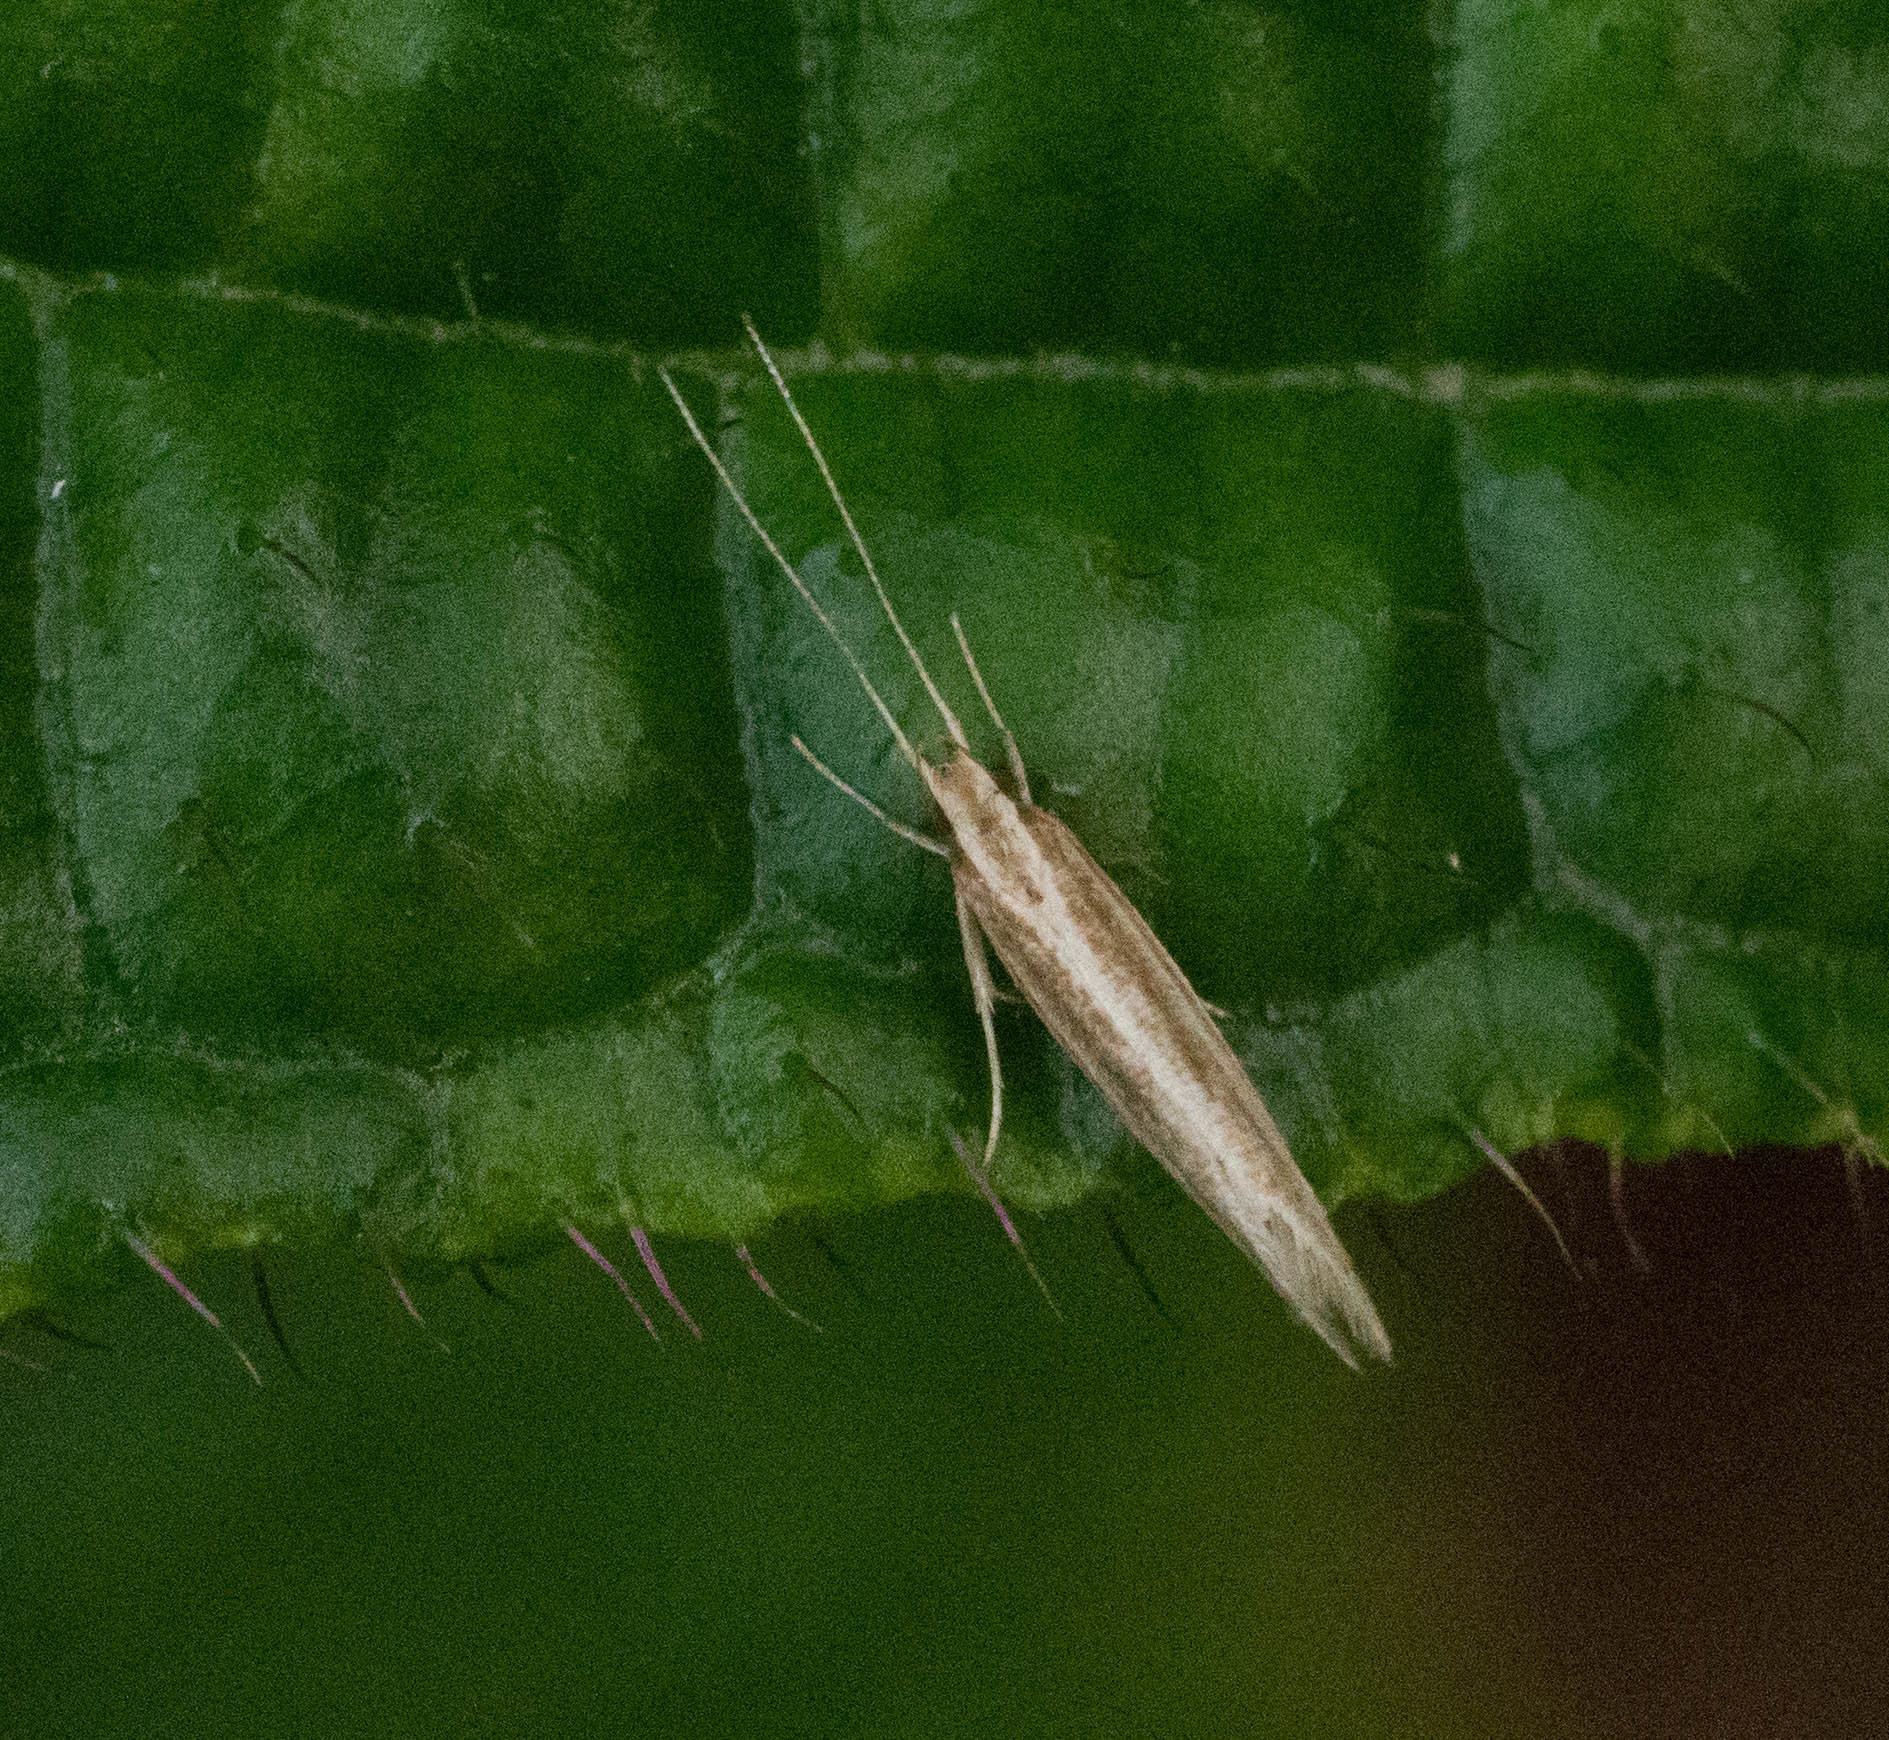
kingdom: Animalia
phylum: Arthropoda
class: Insecta
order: Lepidoptera
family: Cosmopterigidae
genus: Asymphorodes
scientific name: Asymphorodes
